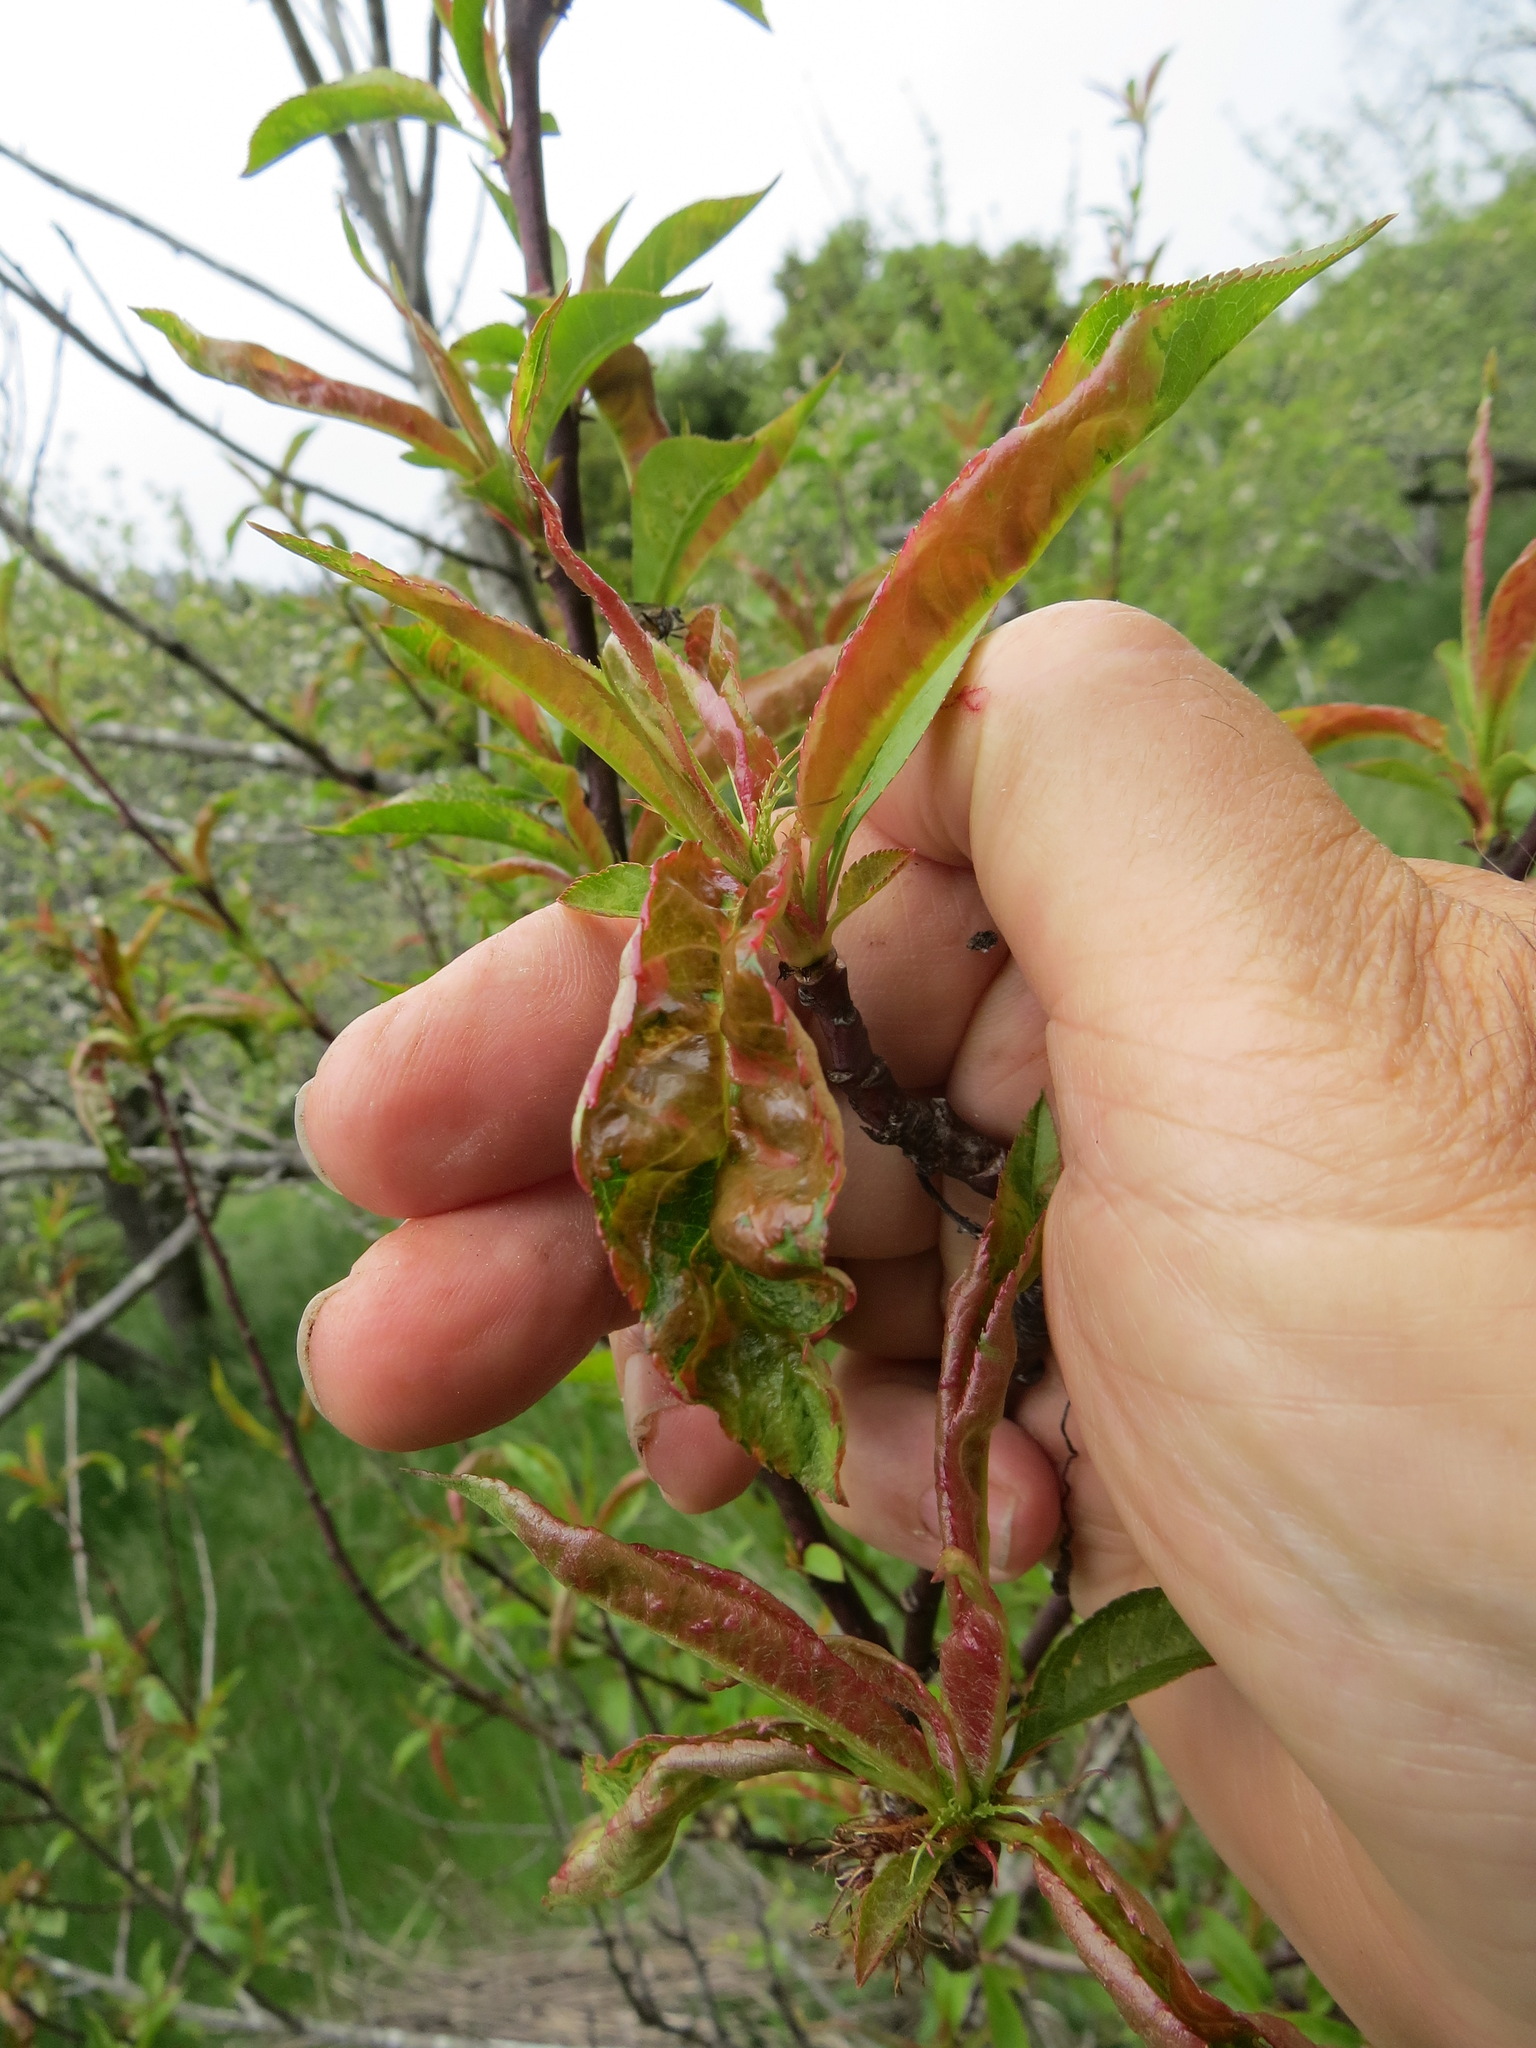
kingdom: Fungi
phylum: Ascomycota
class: Taphrinomycetes
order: Taphrinales
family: Taphrinaceae
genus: Taphrina
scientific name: Taphrina deformans
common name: Peach leaf curl
